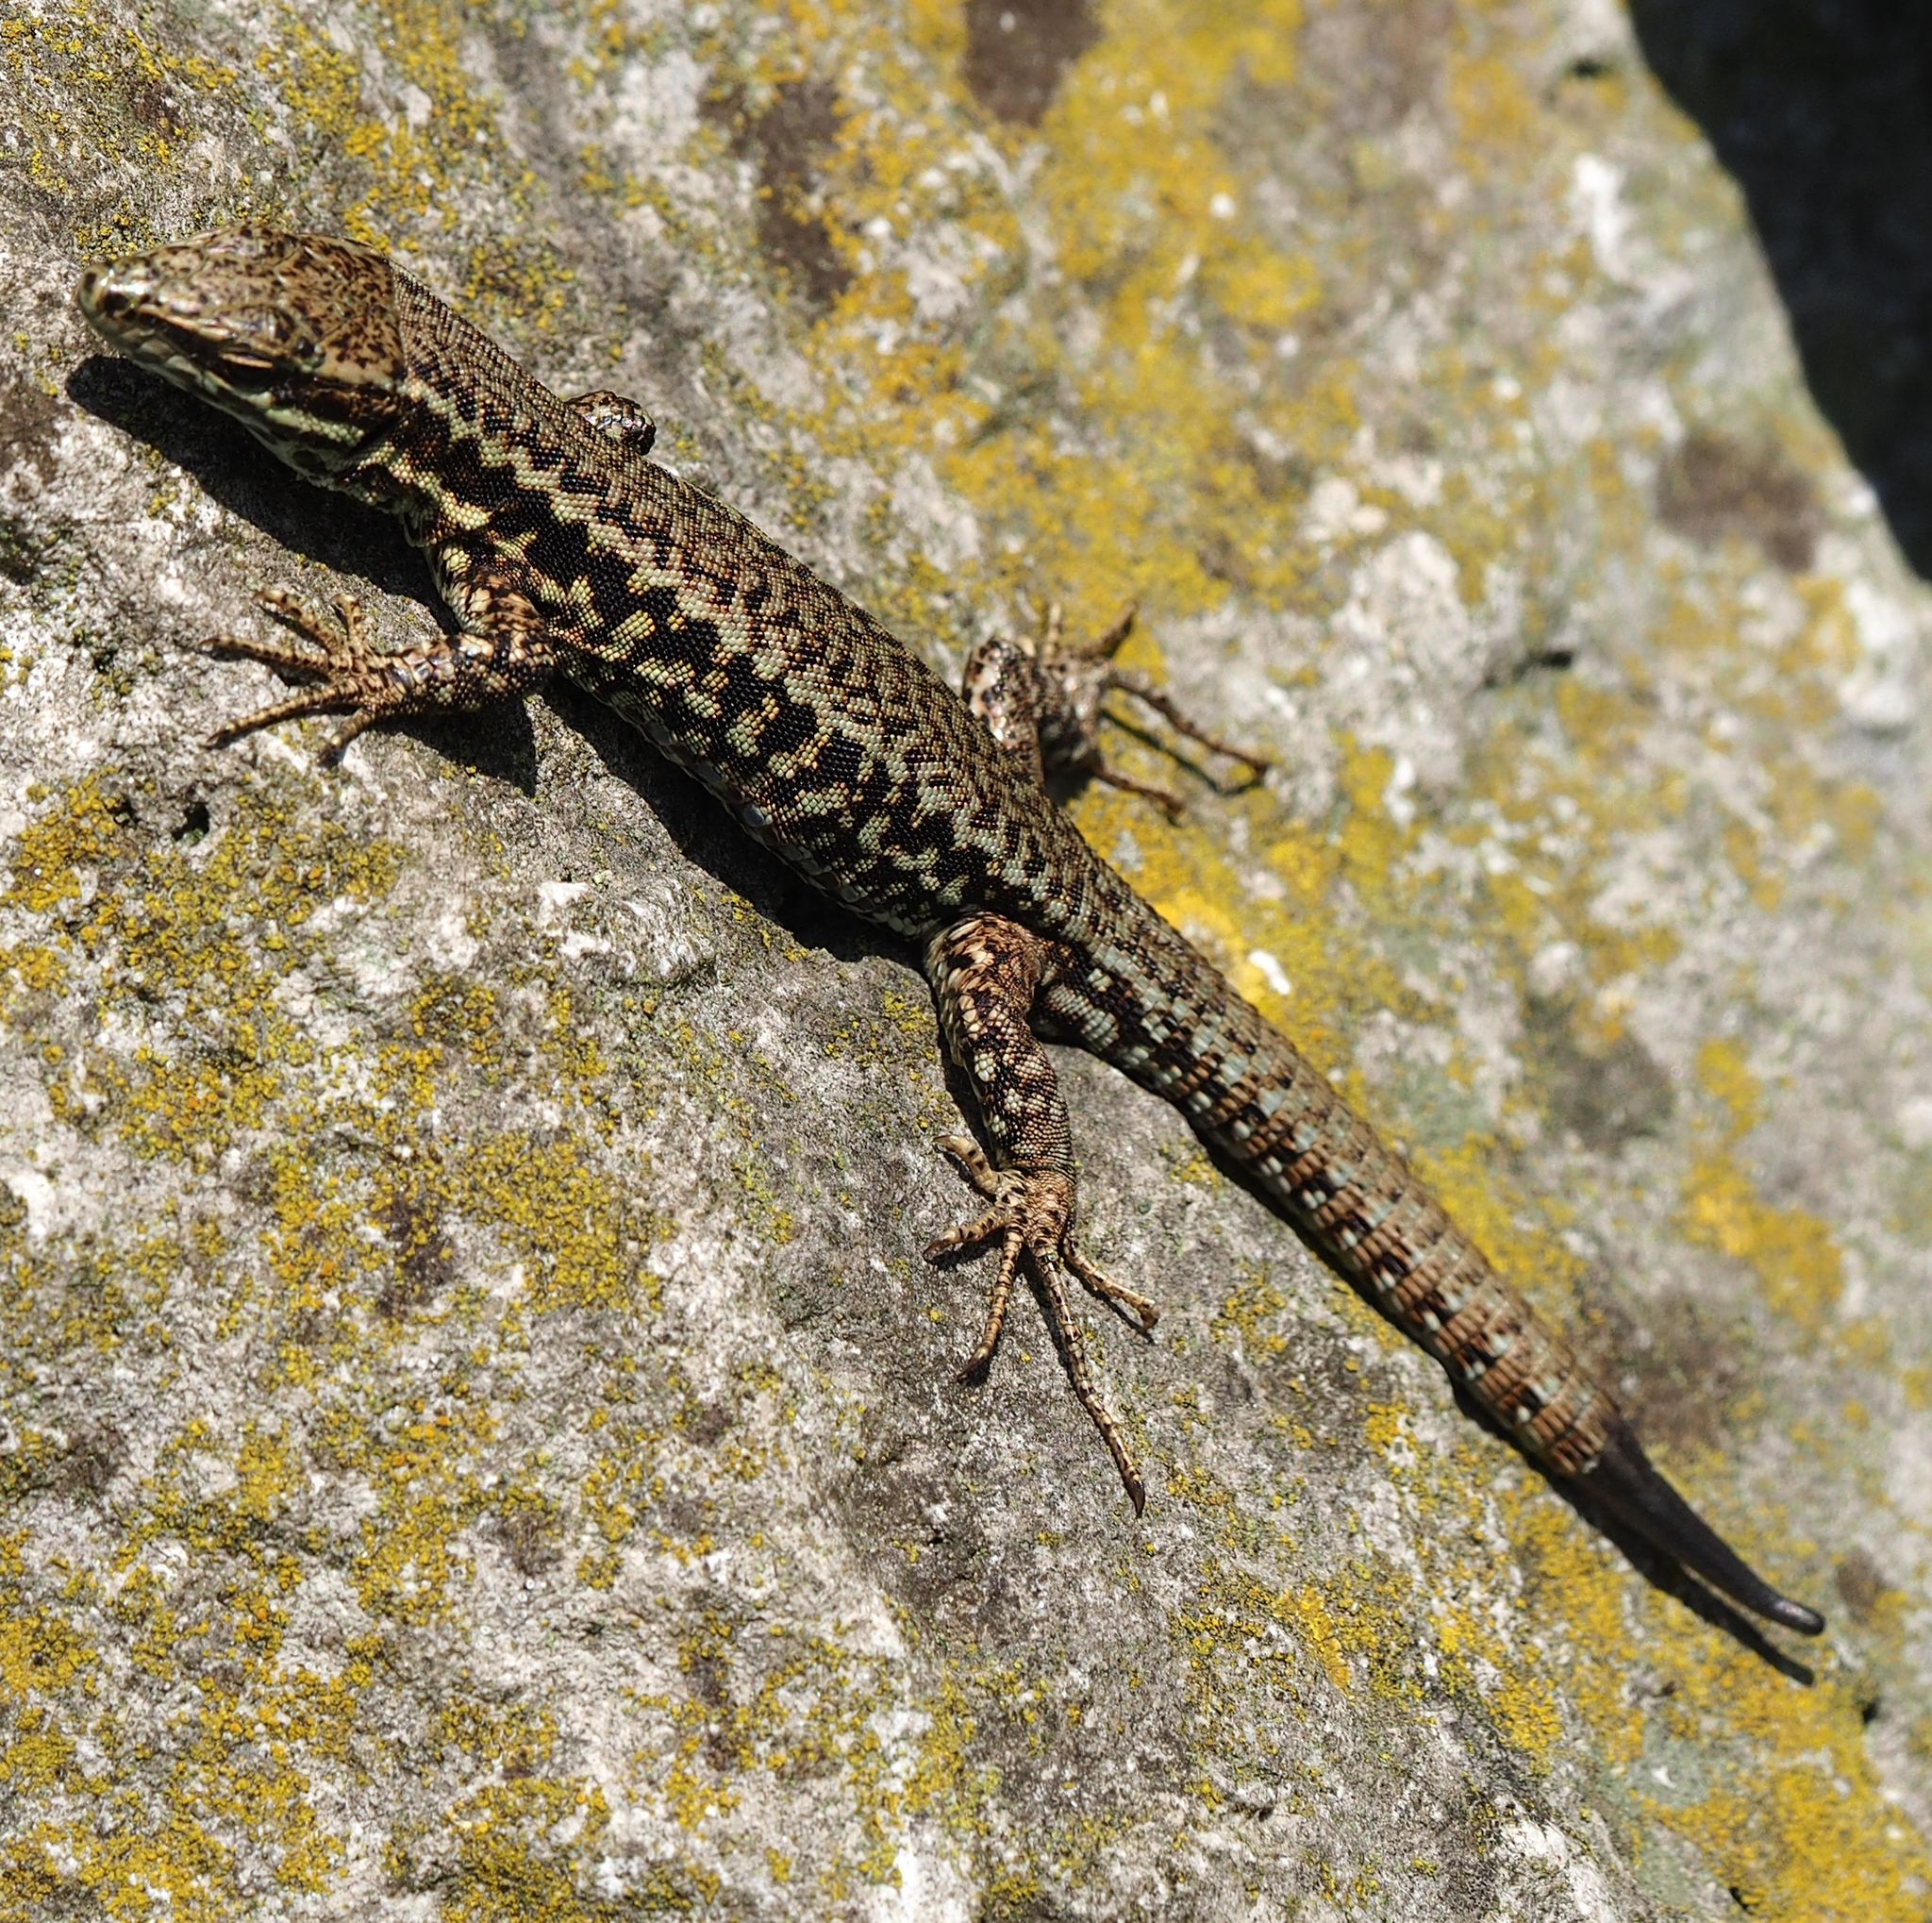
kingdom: Animalia
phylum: Chordata
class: Squamata
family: Lacertidae
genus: Podarcis
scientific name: Podarcis muralis
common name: Common wall lizard
